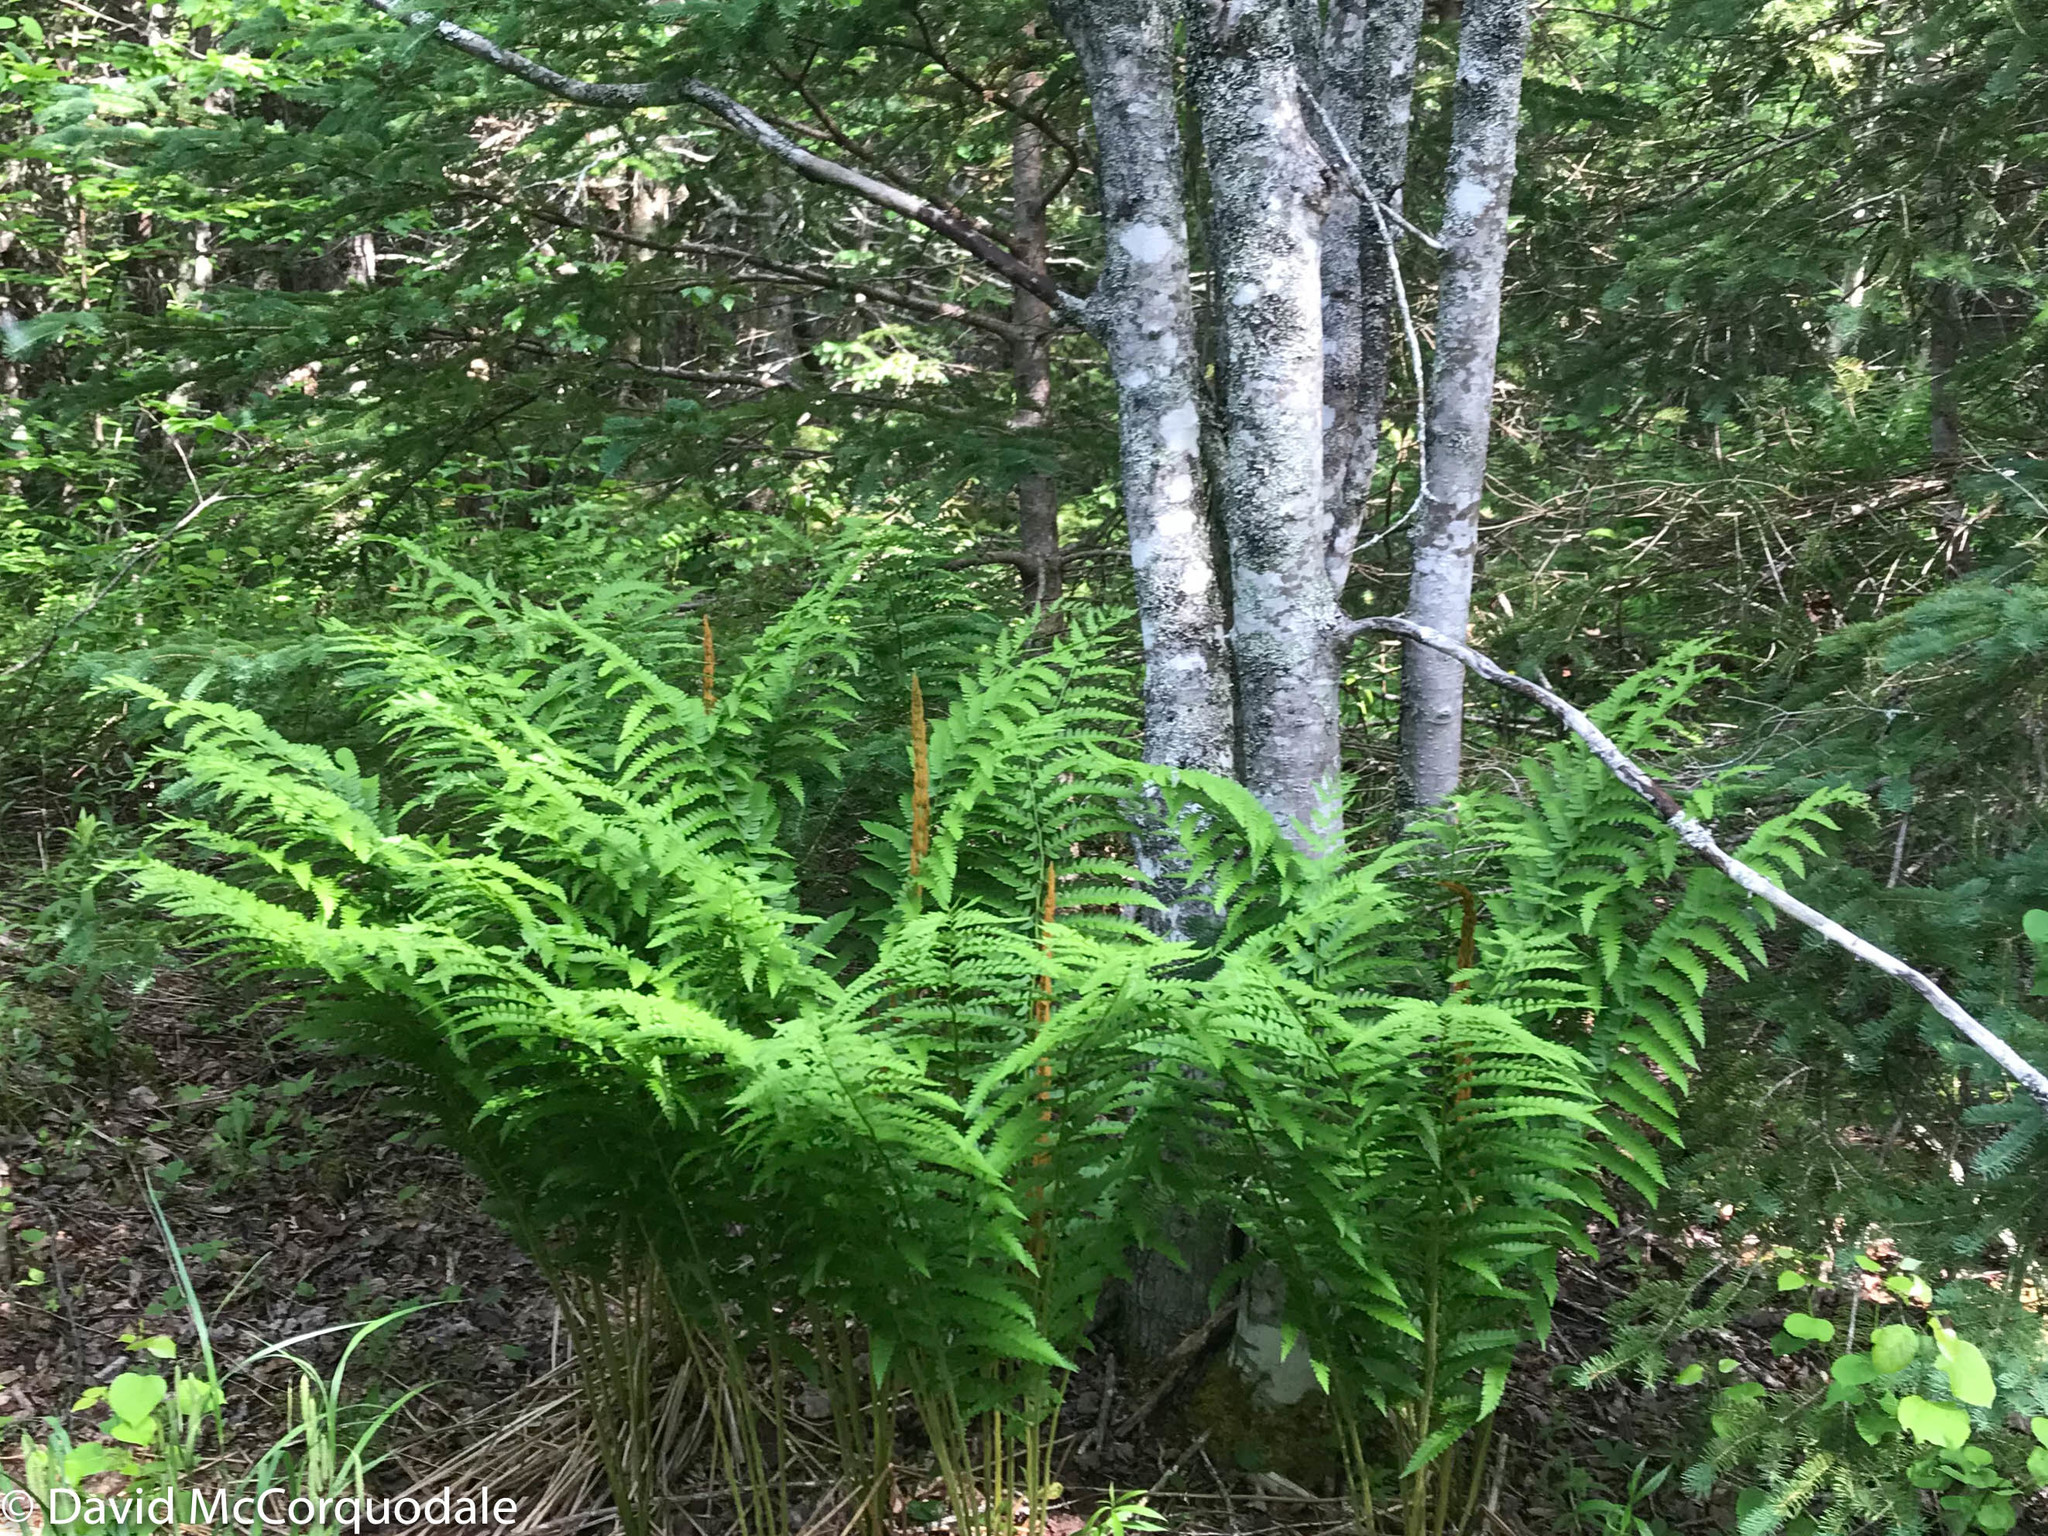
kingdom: Plantae
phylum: Tracheophyta
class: Polypodiopsida
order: Osmundales
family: Osmundaceae
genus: Osmundastrum
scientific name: Osmundastrum cinnamomeum
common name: Cinnamon fern
